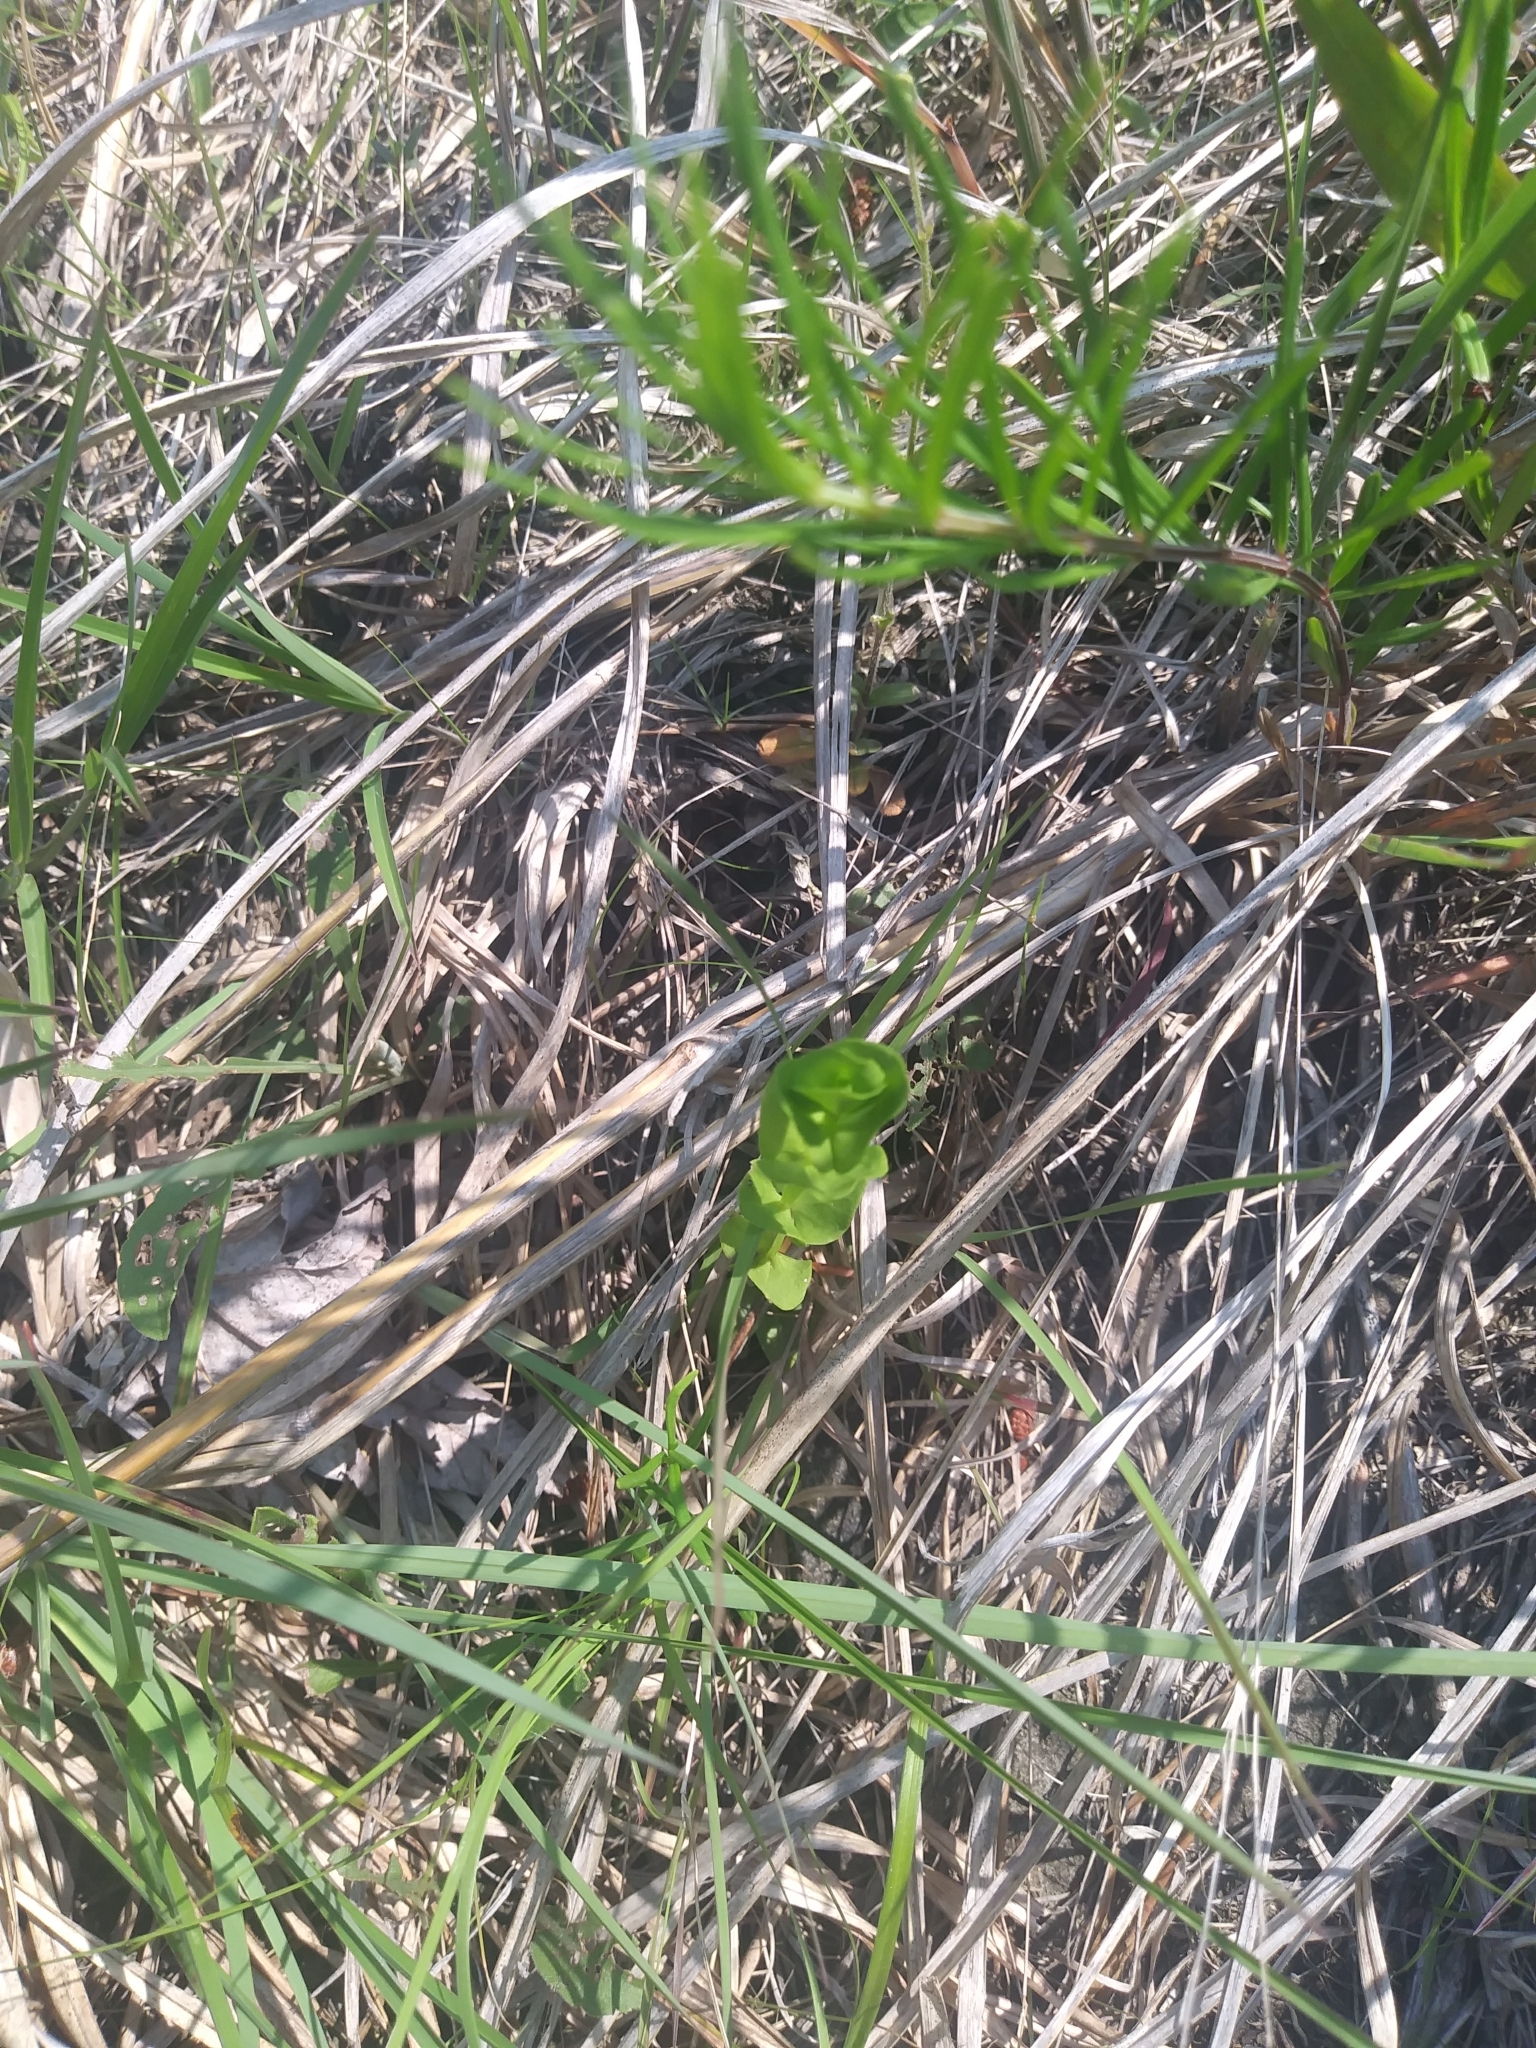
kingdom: Plantae
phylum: Tracheophyta
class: Magnoliopsida
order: Gentianales
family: Gentianaceae
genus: Sabatia
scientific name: Sabatia angularis
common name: Rose-pink
